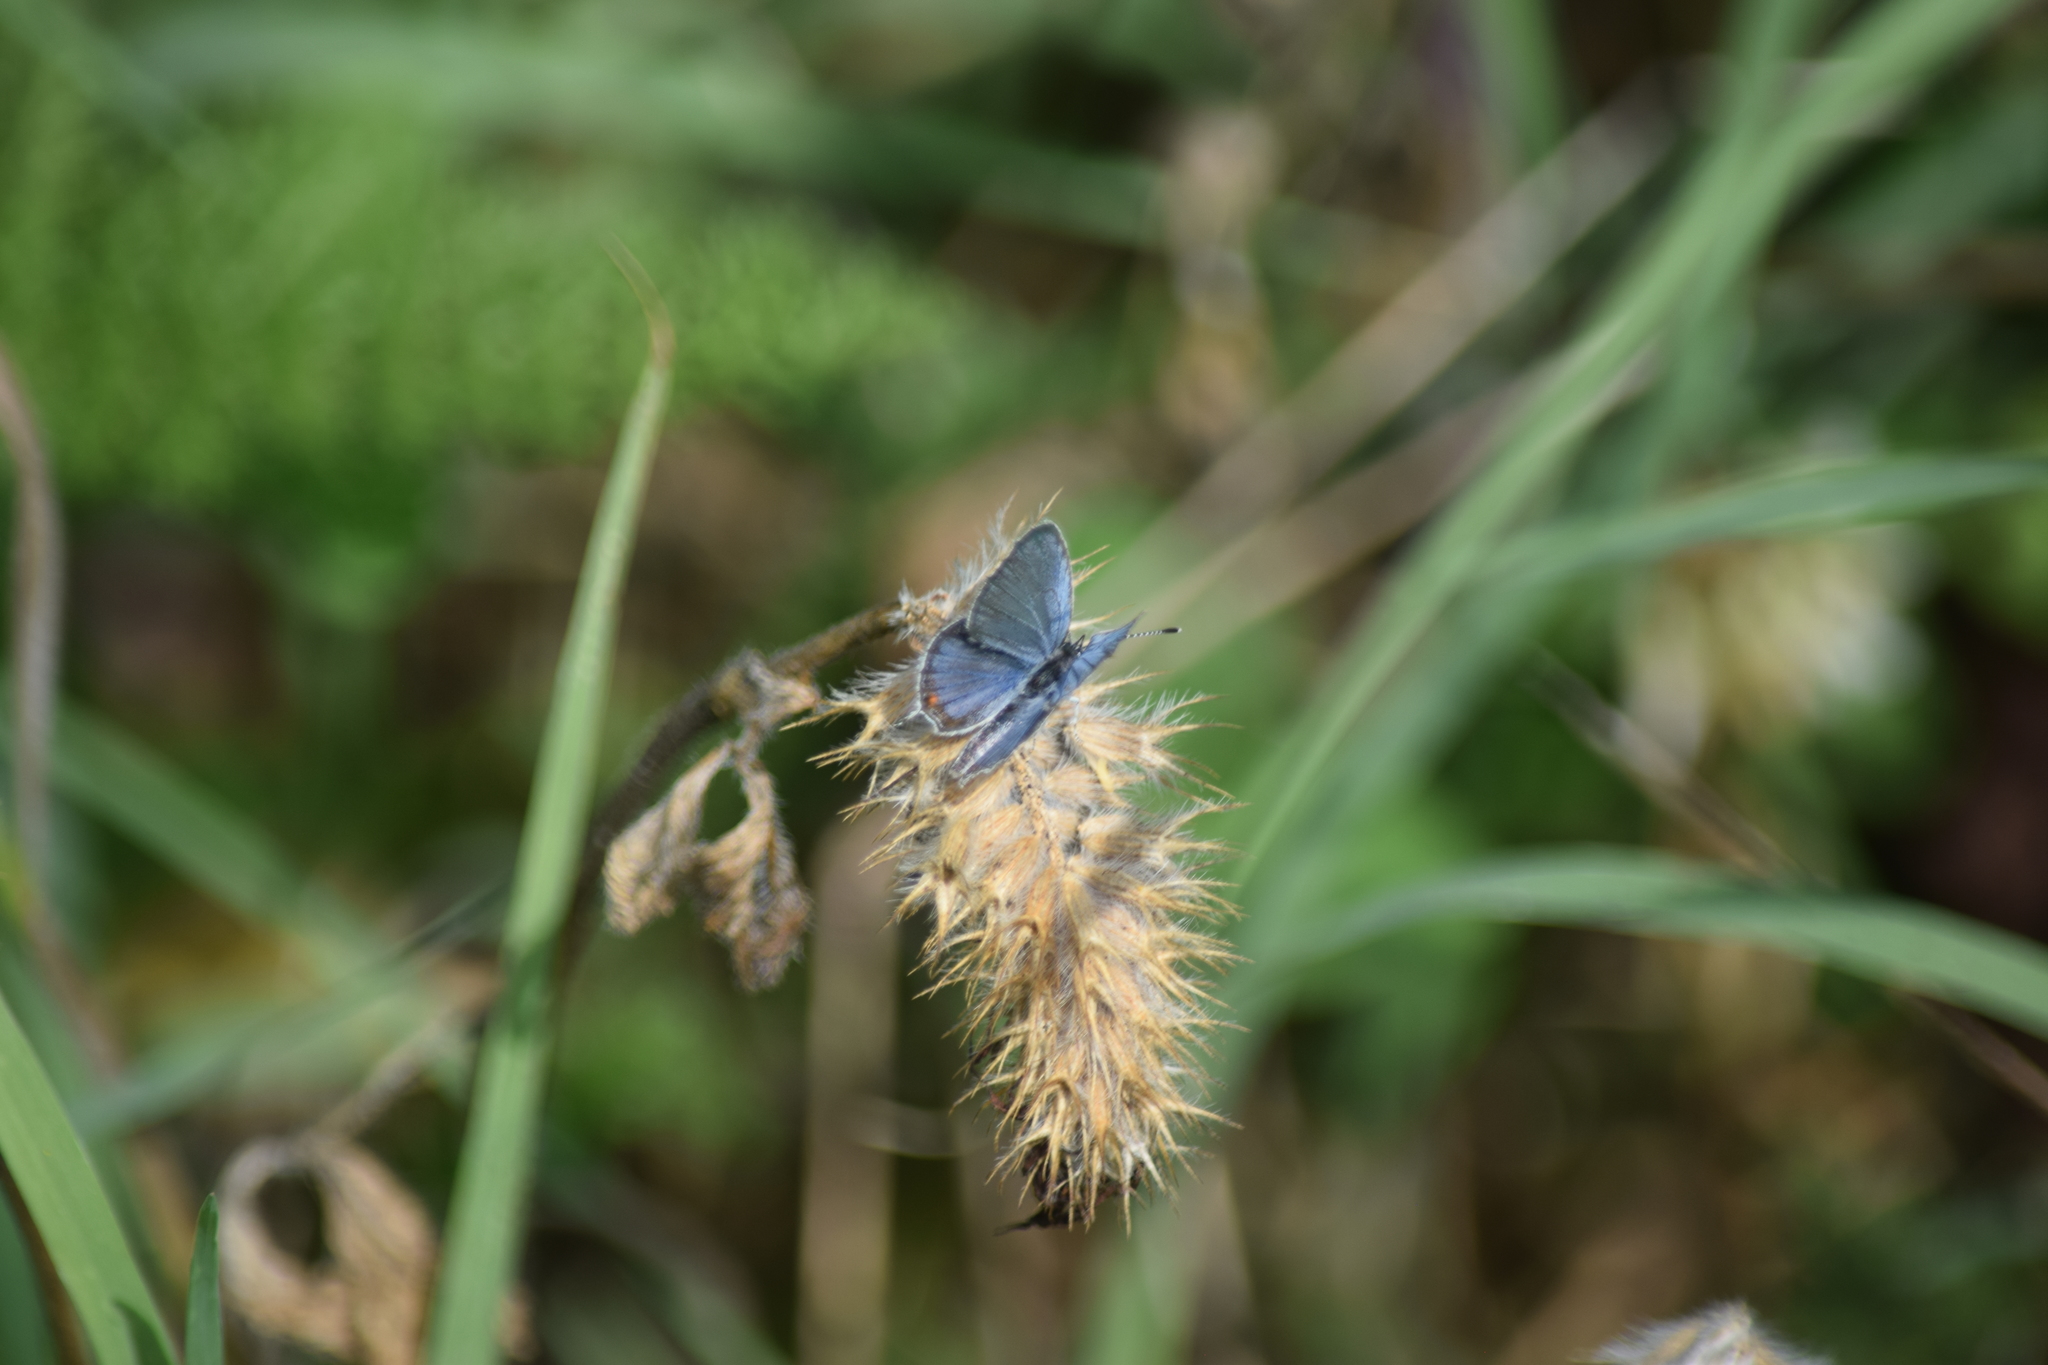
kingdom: Animalia
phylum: Arthropoda
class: Insecta
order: Lepidoptera
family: Lycaenidae
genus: Elkalyce
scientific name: Elkalyce comyntas
